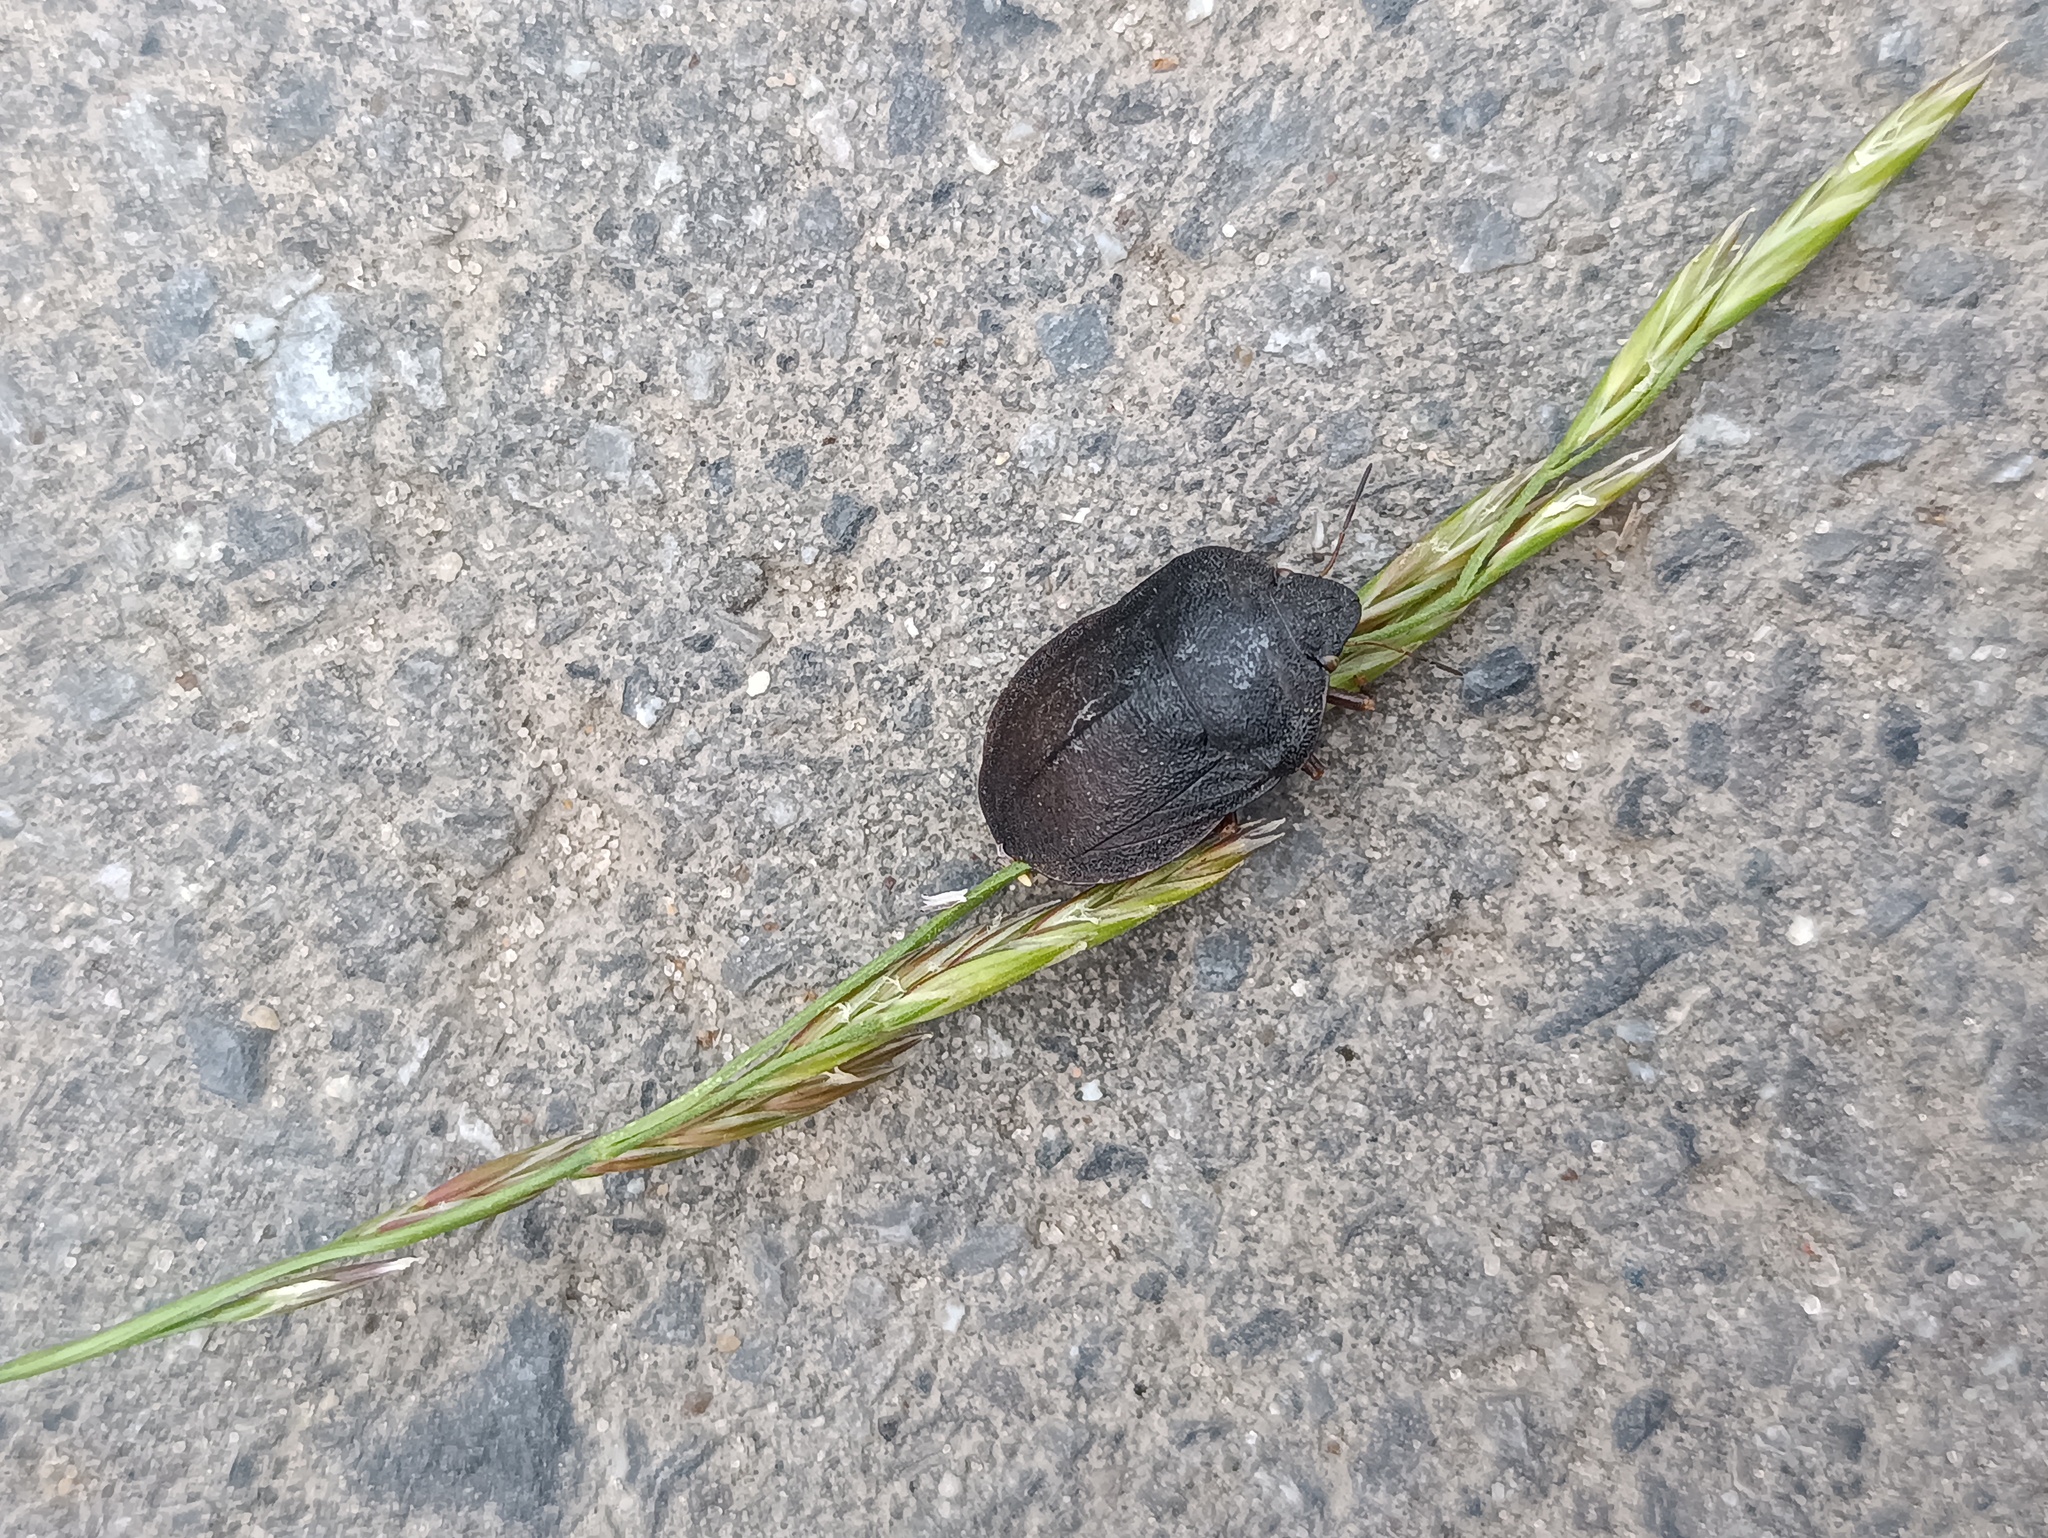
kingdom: Animalia
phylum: Arthropoda
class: Insecta
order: Hemiptera
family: Scutelleridae
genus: Eurygaster
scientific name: Eurygaster austriaca
